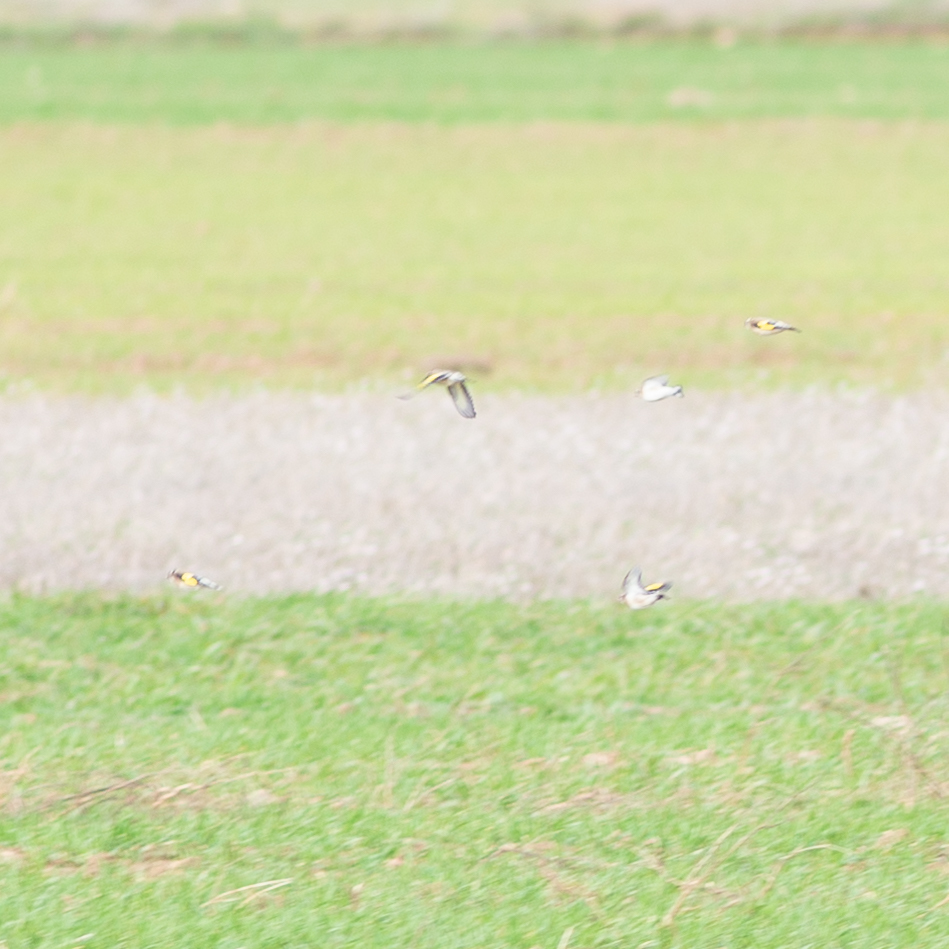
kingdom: Animalia
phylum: Chordata
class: Aves
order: Passeriformes
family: Fringillidae
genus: Carduelis
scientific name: Carduelis carduelis
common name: European goldfinch
